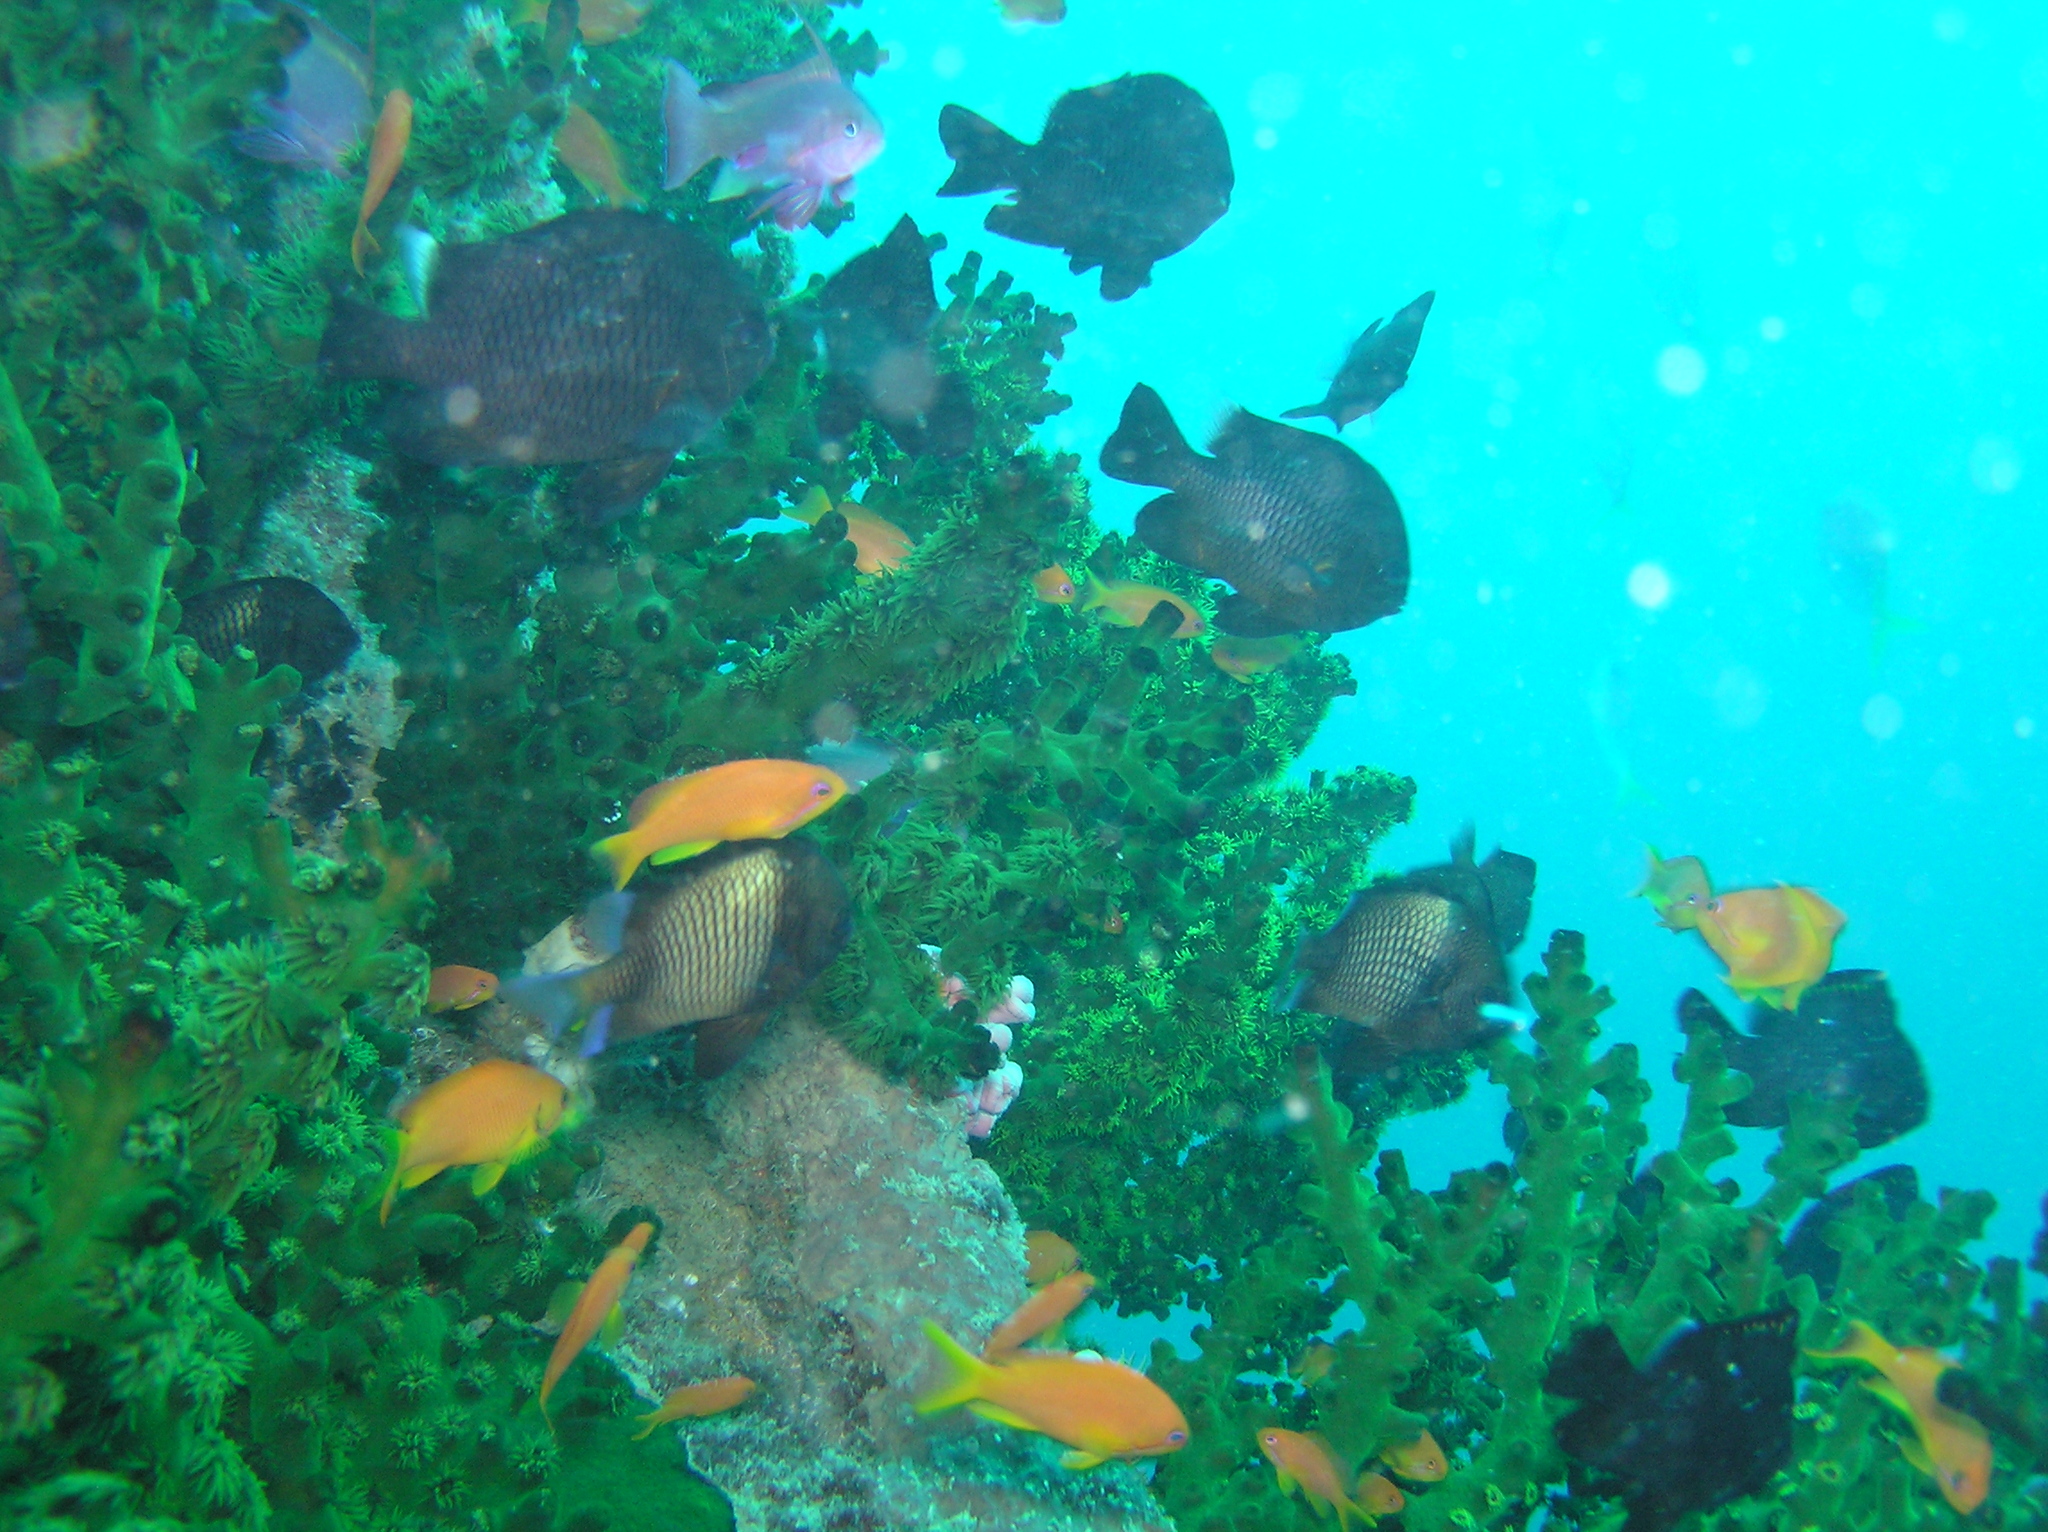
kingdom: Animalia
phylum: Chordata
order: Perciformes
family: Pomacentridae
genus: Dascyllus
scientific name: Dascyllus reticulatus
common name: Reticulated dascyllus
